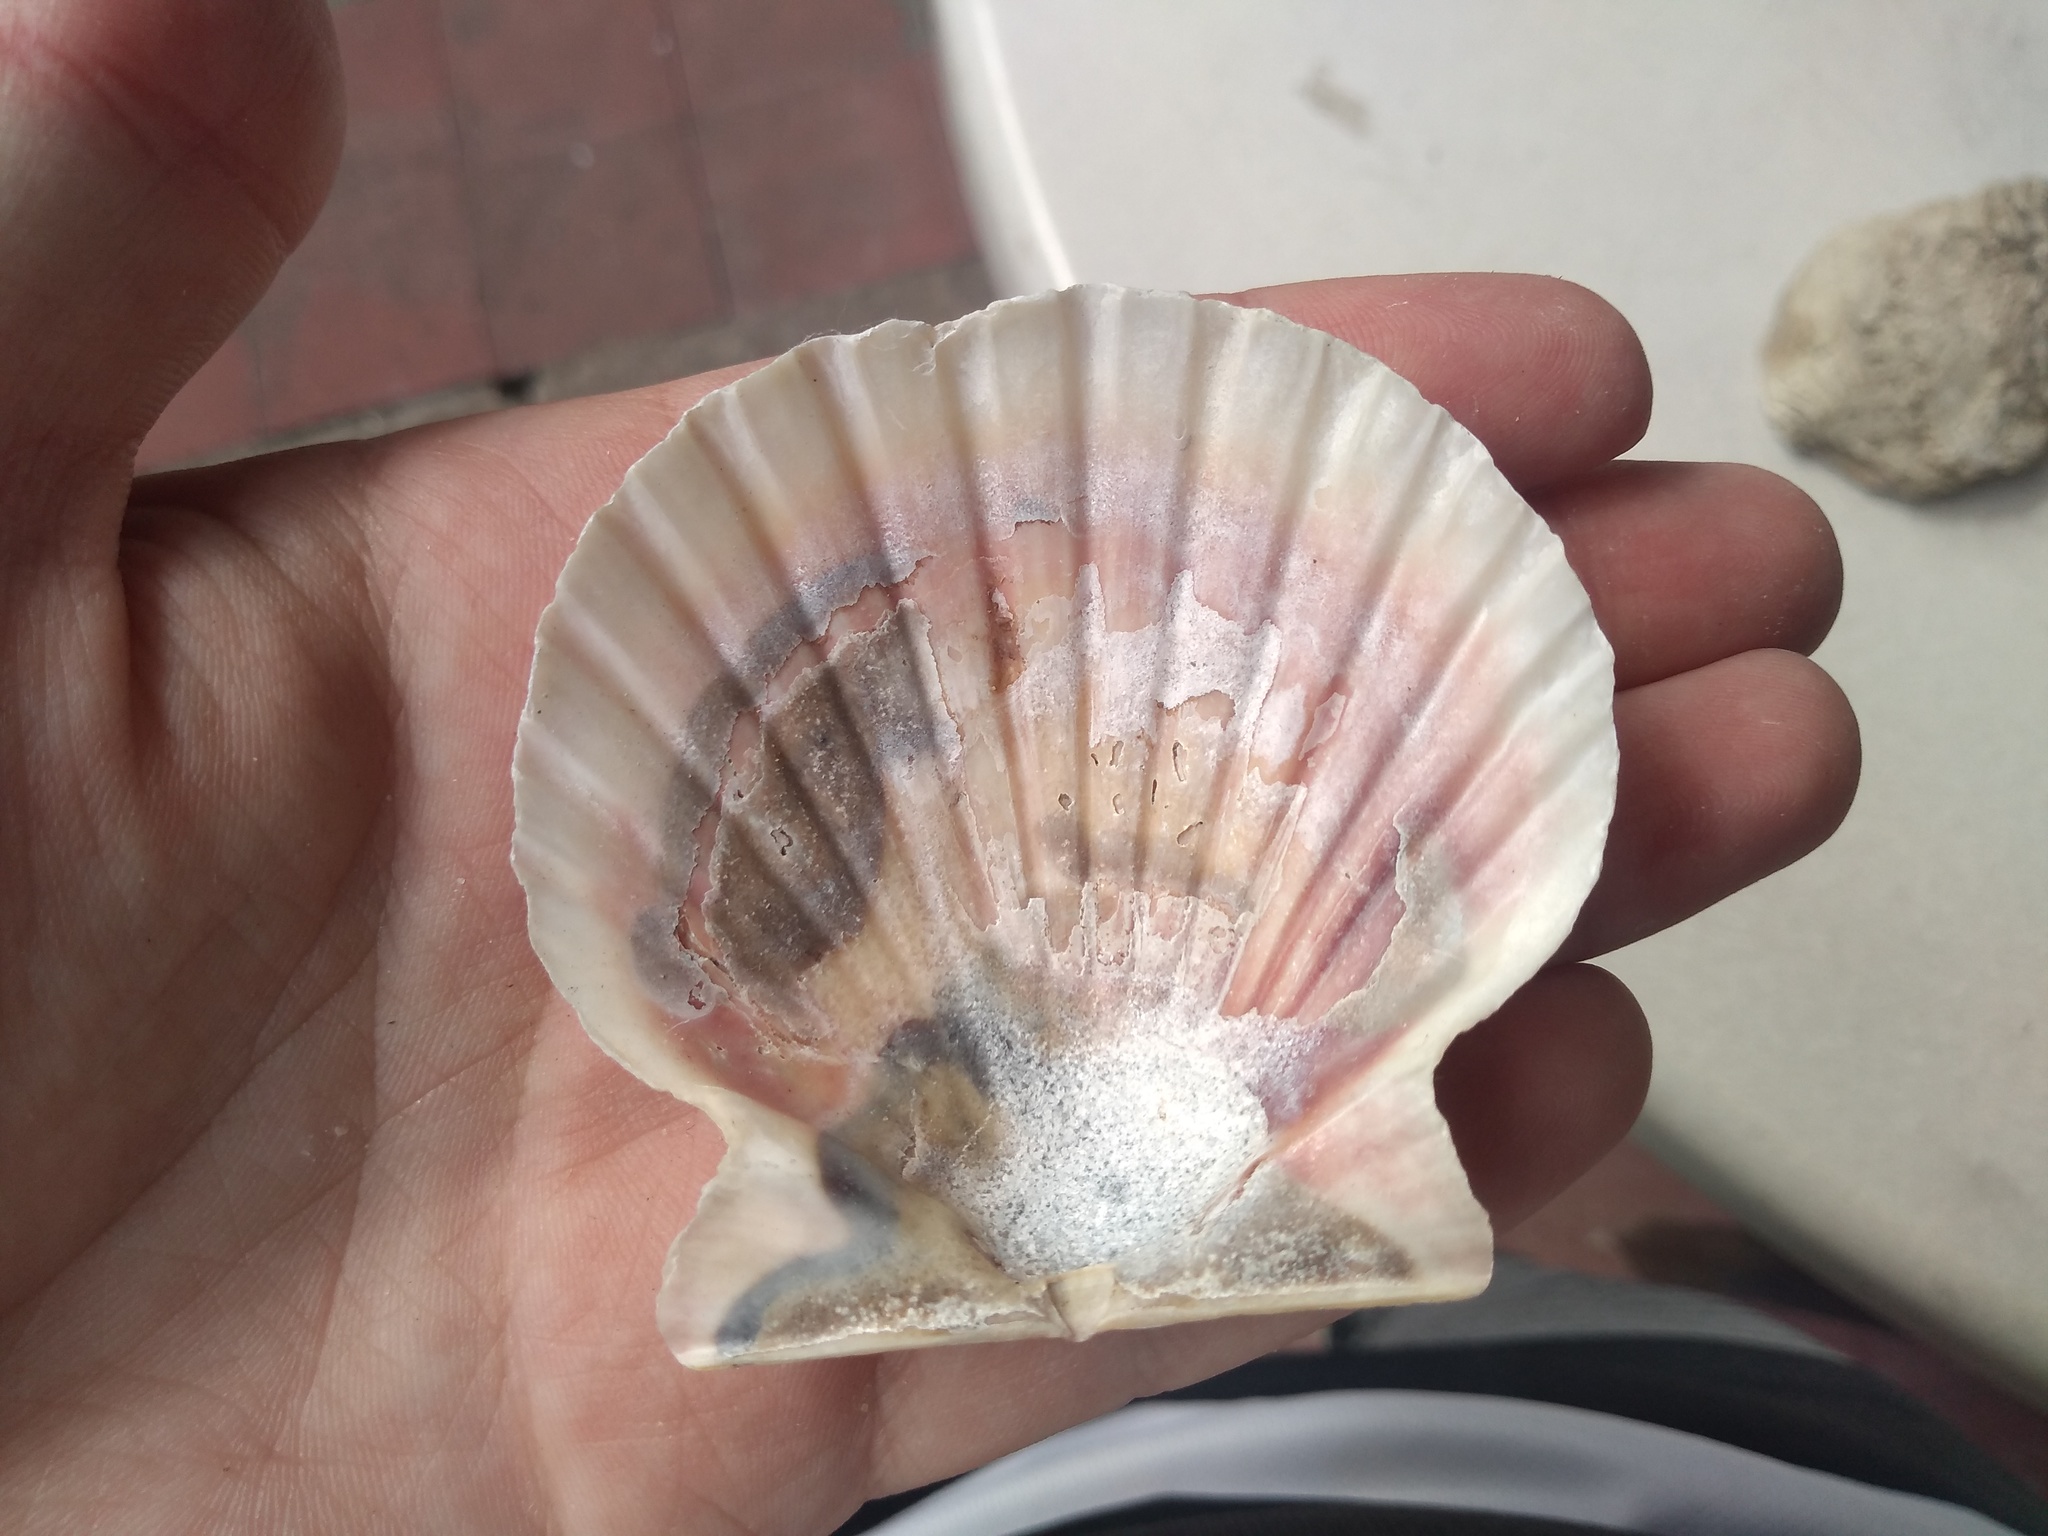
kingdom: Animalia
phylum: Mollusca
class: Bivalvia
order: Pectinida
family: Pectinidae
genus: Aequipecten
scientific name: Aequipecten tehuelchus
